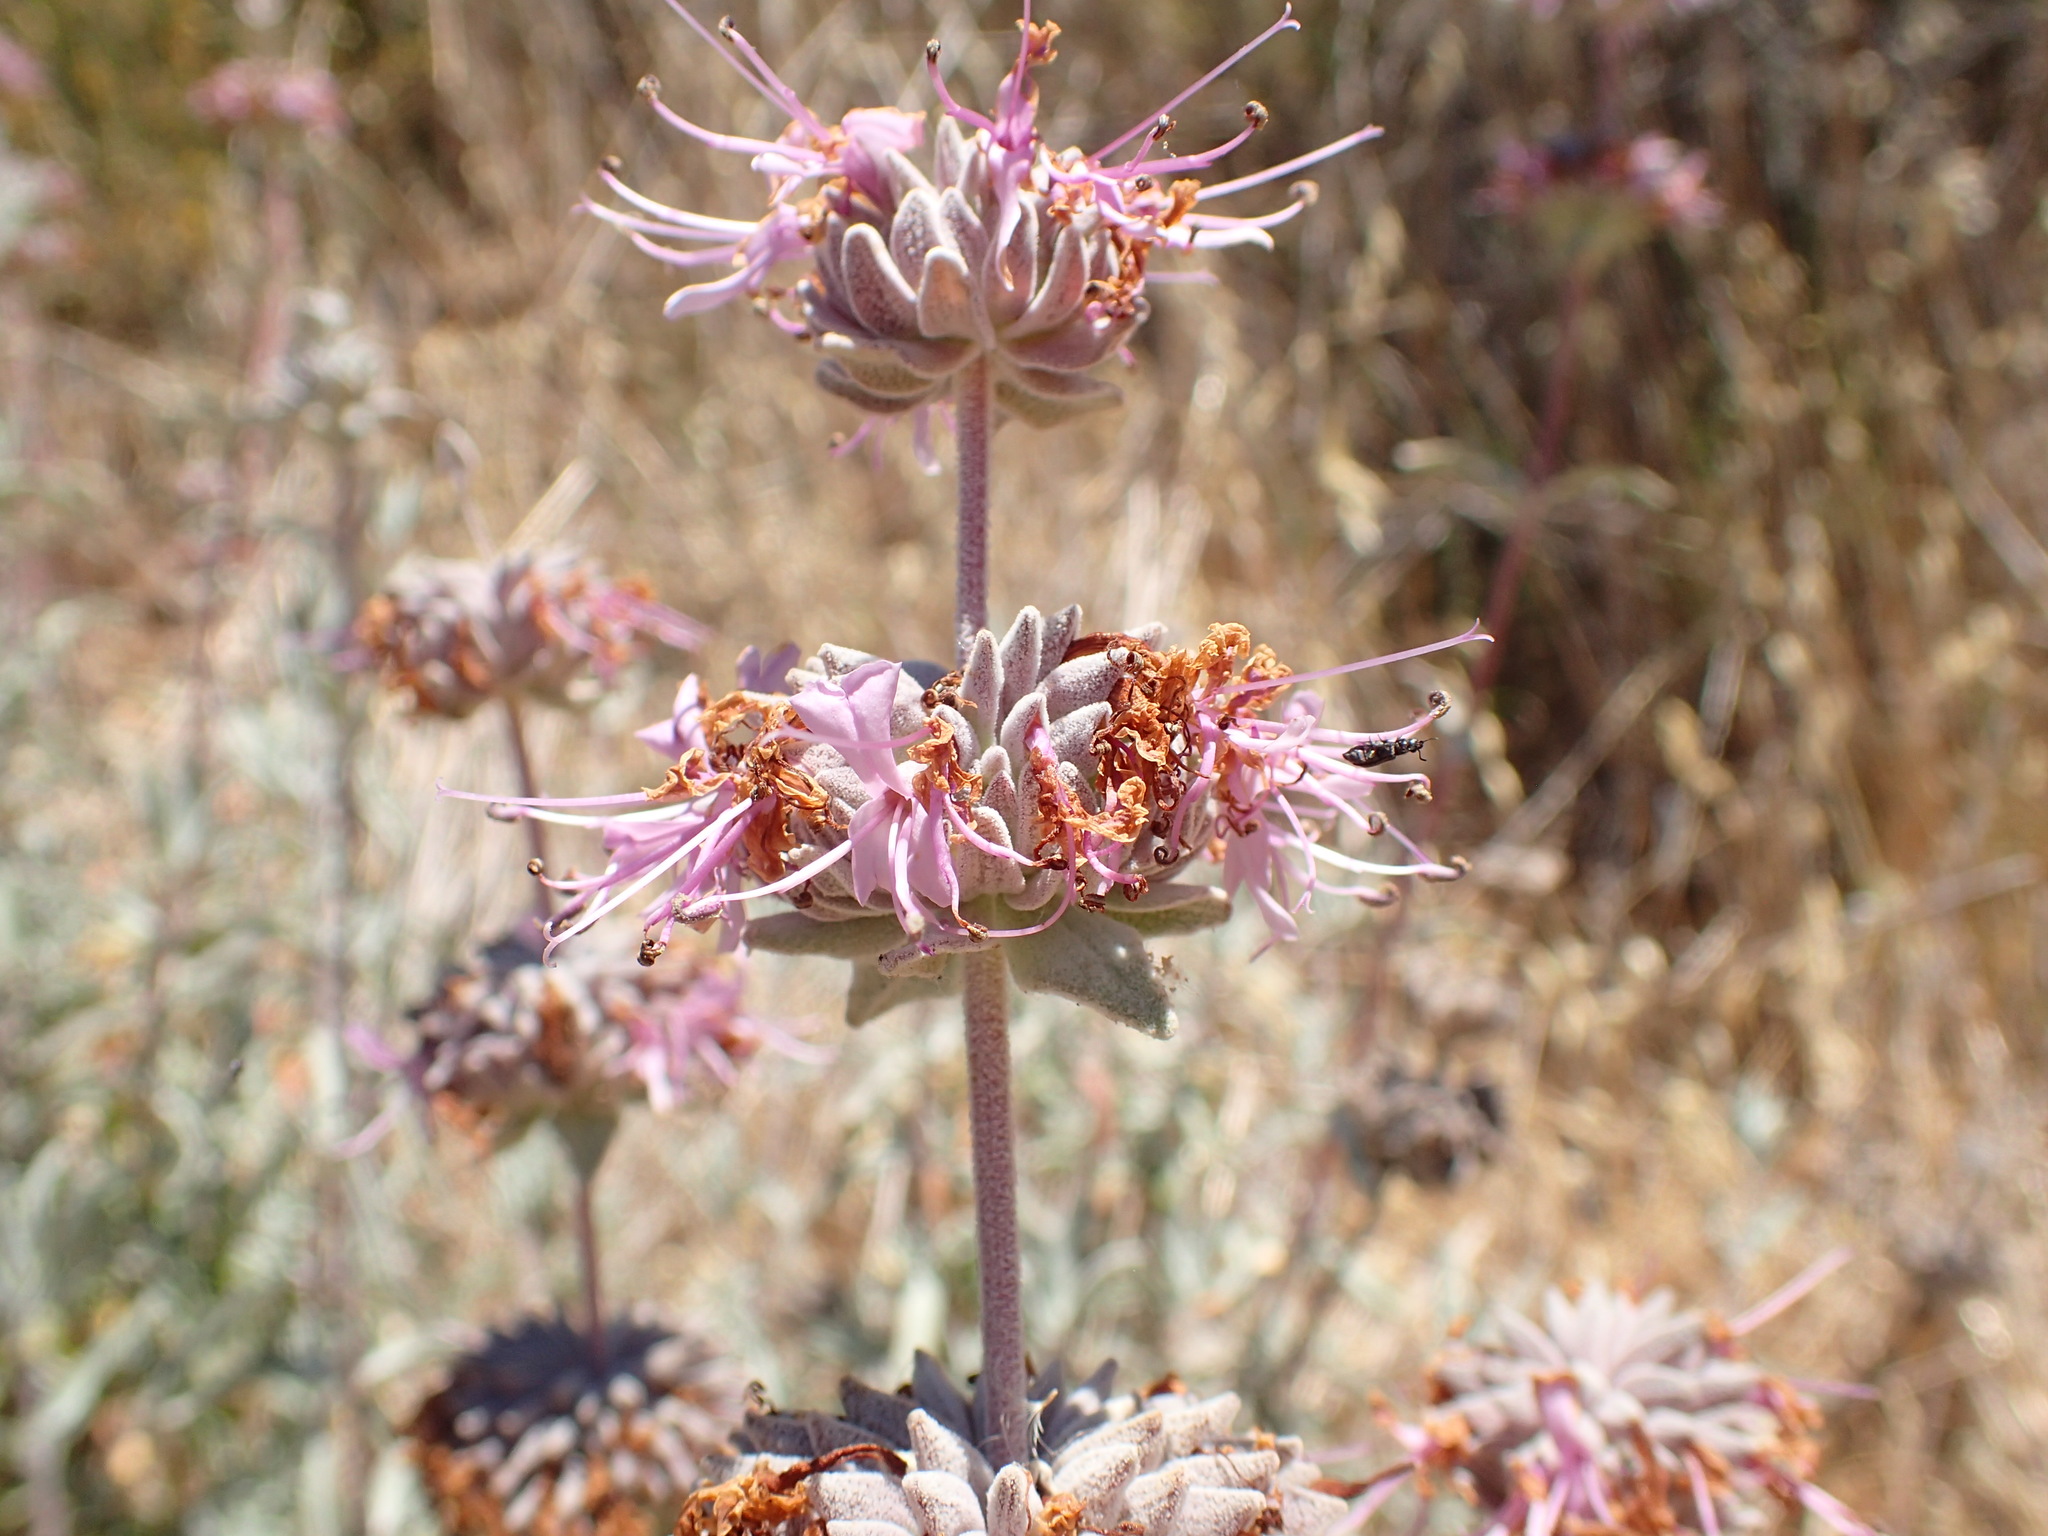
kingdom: Plantae
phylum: Tracheophyta
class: Magnoliopsida
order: Lamiales
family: Lamiaceae
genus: Salvia
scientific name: Salvia leucophylla
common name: Purple sage
